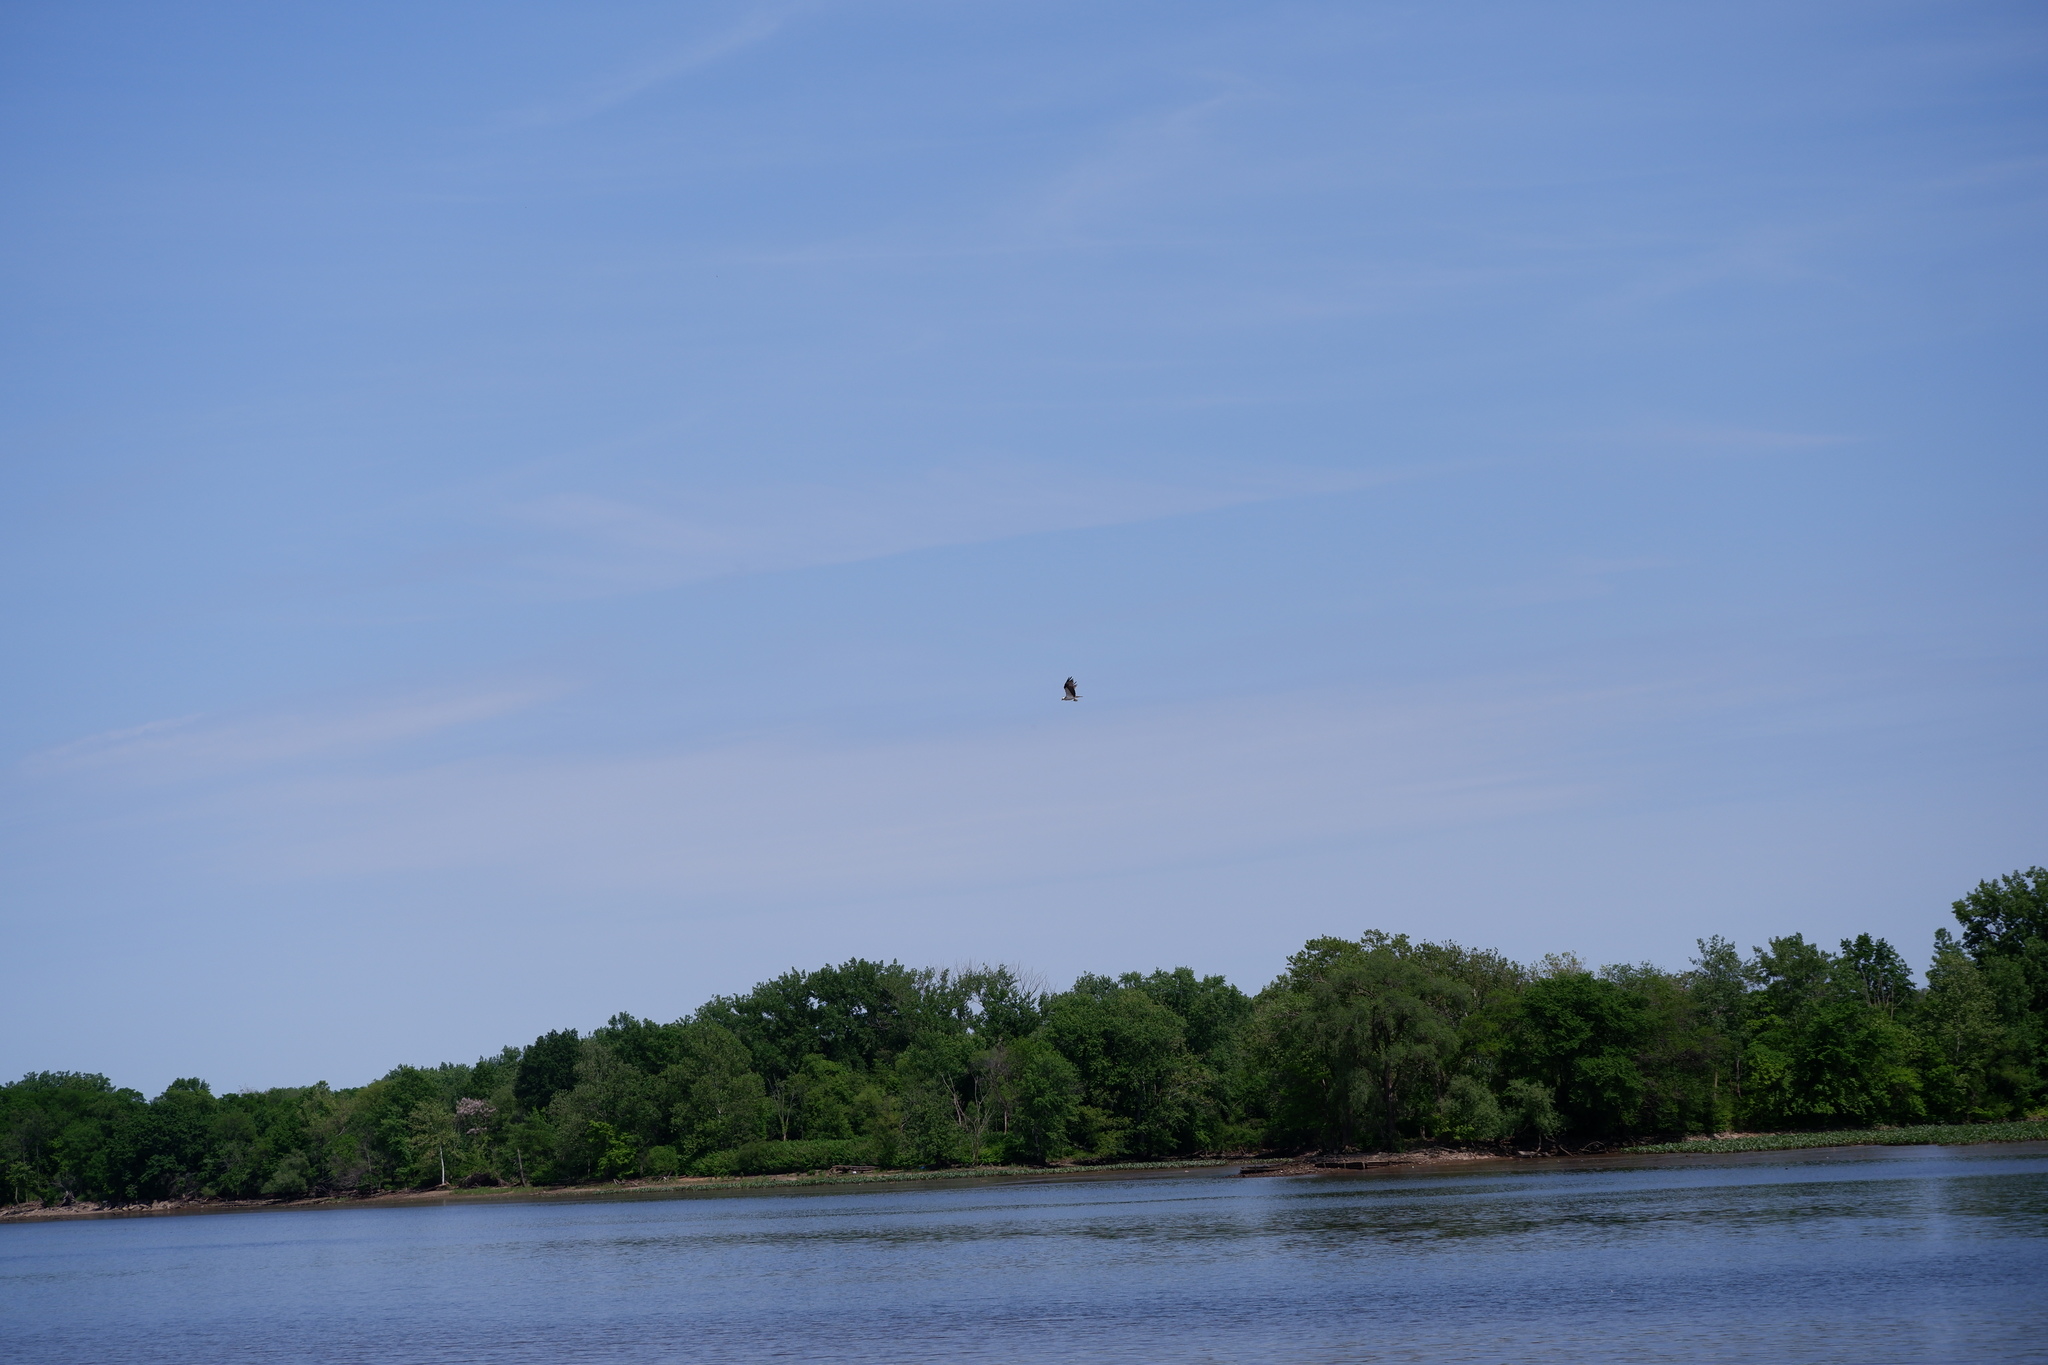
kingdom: Animalia
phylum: Chordata
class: Aves
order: Accipitriformes
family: Pandionidae
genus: Pandion
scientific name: Pandion haliaetus
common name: Osprey
